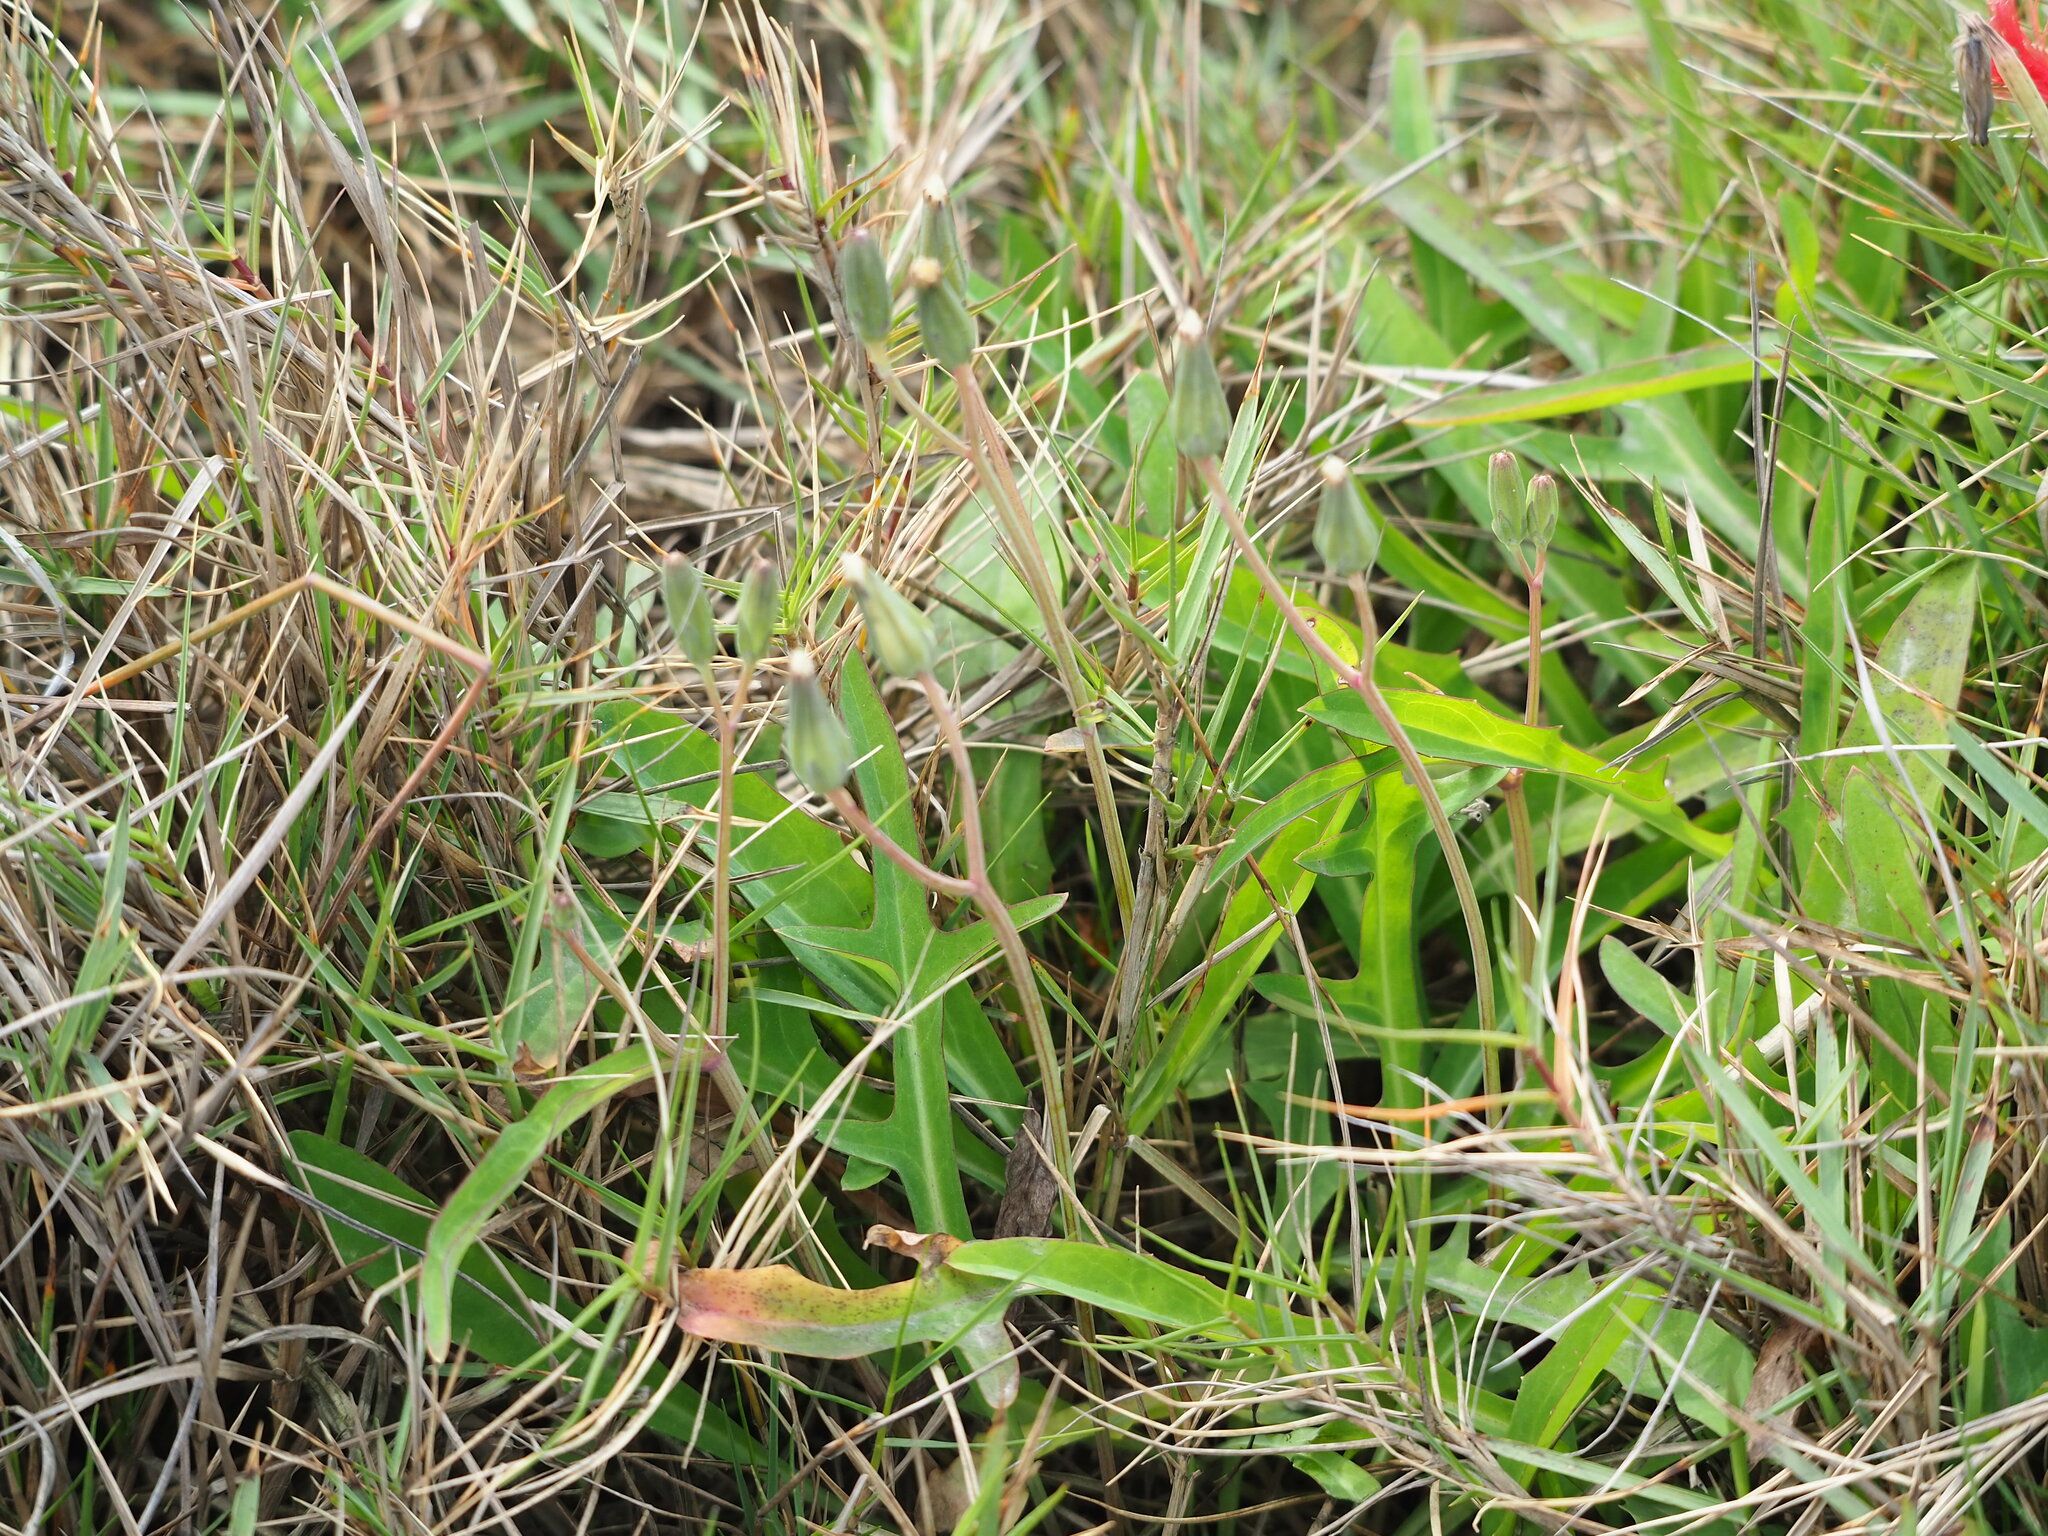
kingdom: Plantae
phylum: Tracheophyta
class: Magnoliopsida
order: Asterales
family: Asteraceae
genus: Ixeris
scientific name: Ixeris japonica
